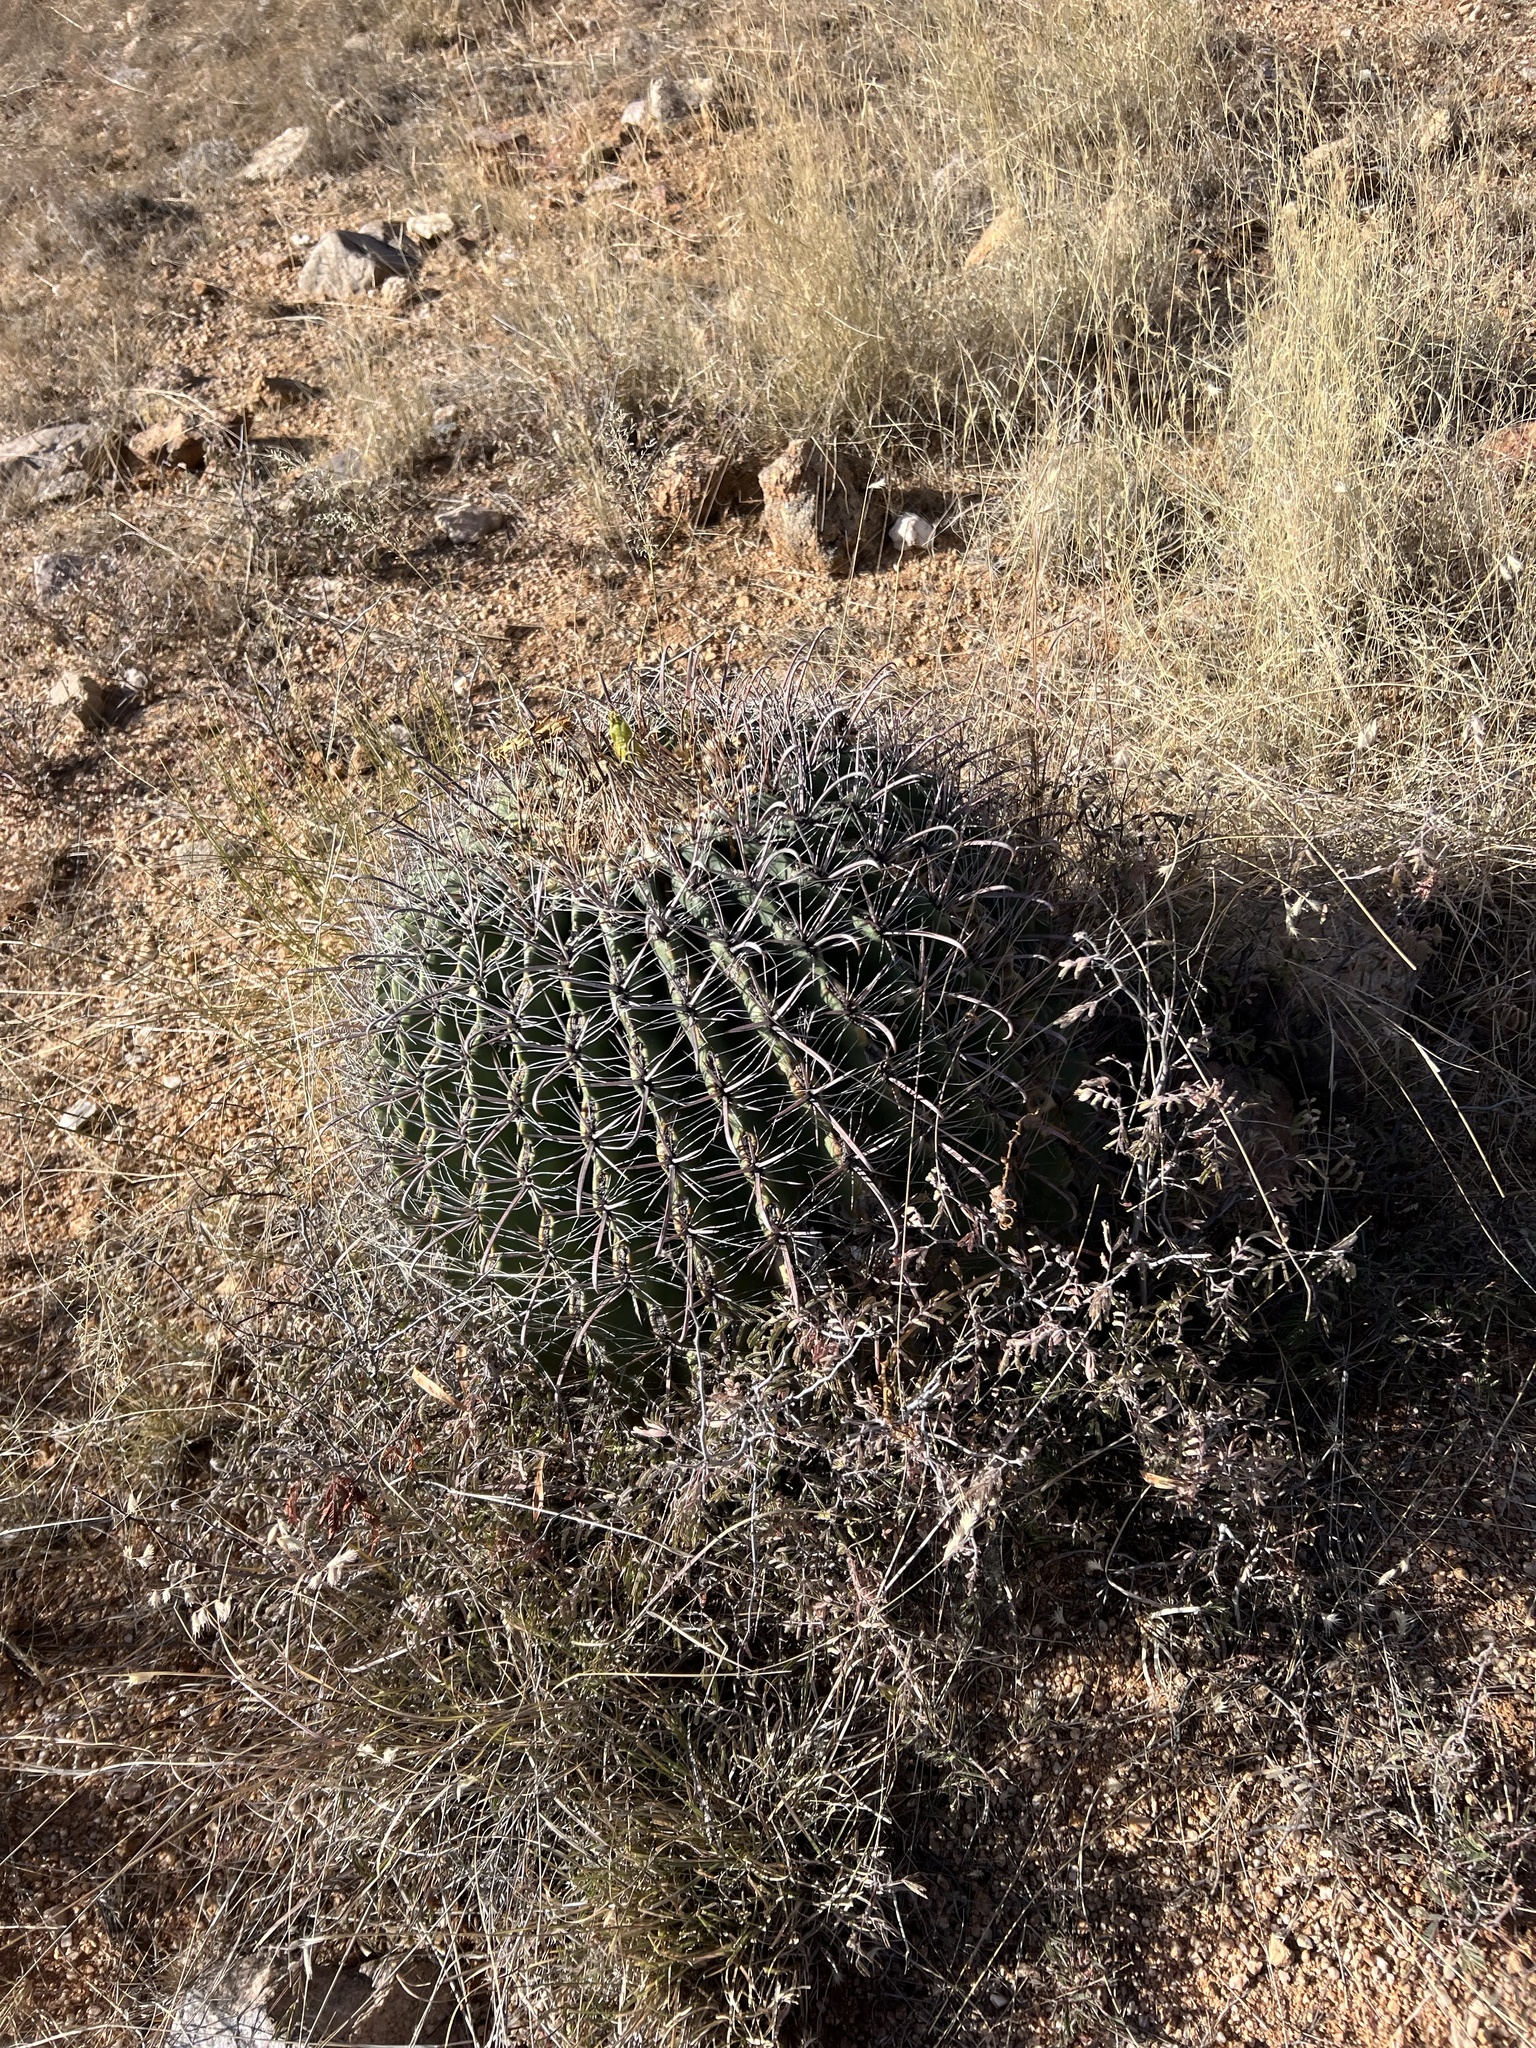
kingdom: Plantae
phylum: Tracheophyta
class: Magnoliopsida
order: Caryophyllales
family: Cactaceae
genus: Ferocactus
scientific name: Ferocactus wislizeni
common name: Candy barrel cactus
